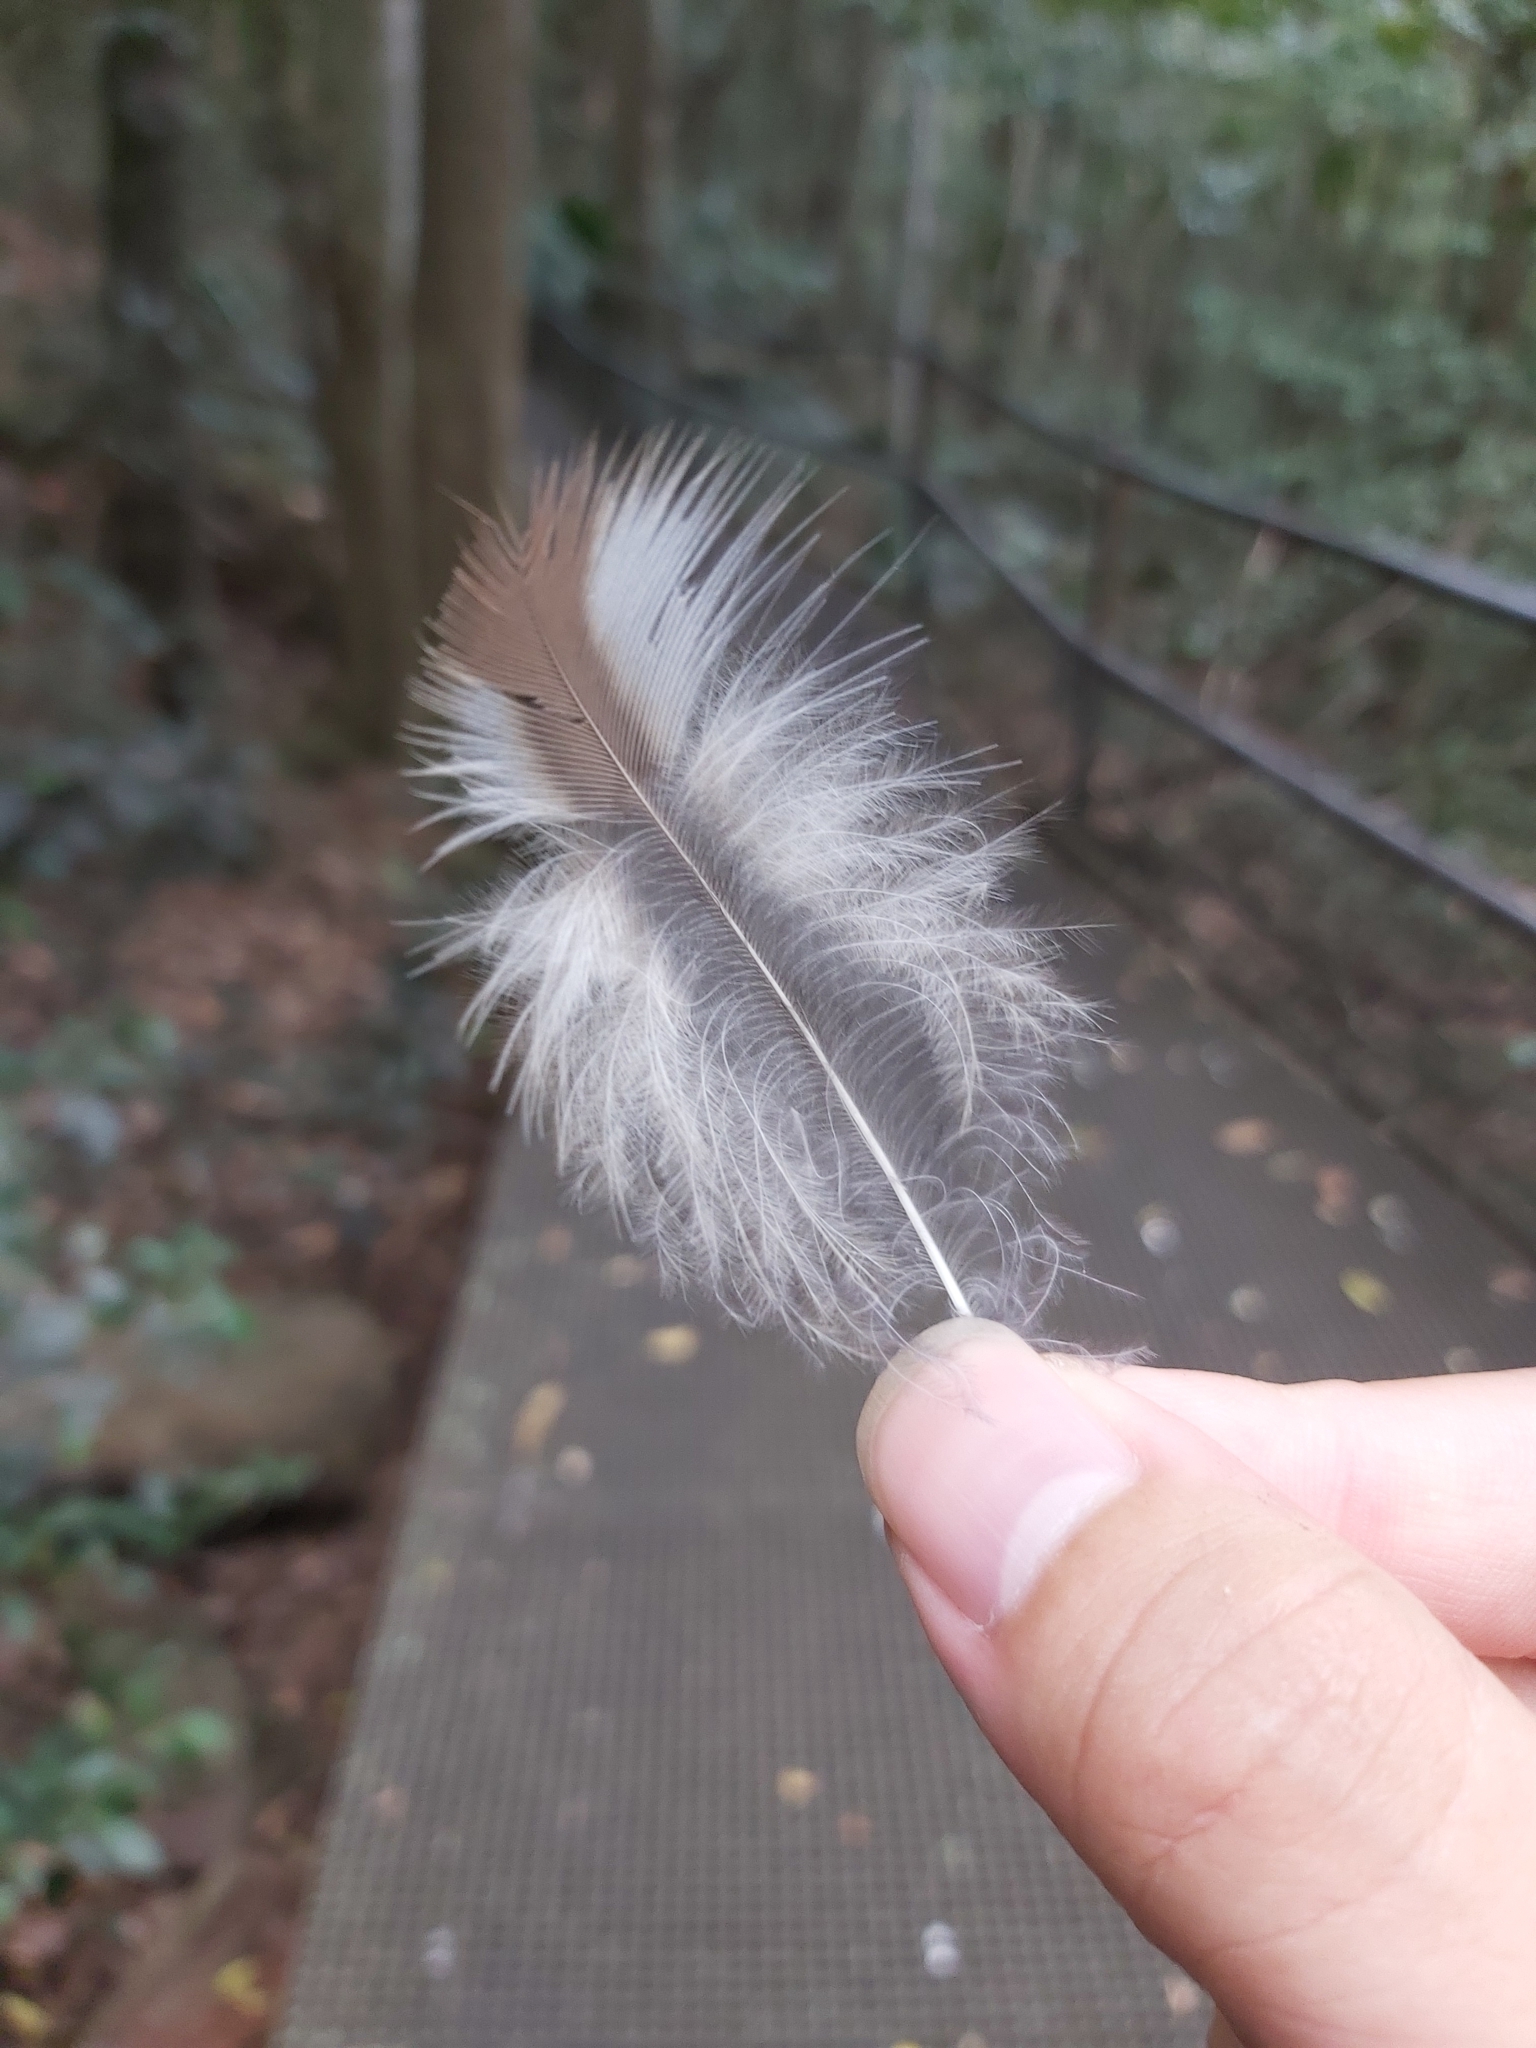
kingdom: Animalia
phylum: Chordata
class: Aves
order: Strigiformes
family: Strigidae
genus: Ninox
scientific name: Ninox boobook
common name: Southern boobook
